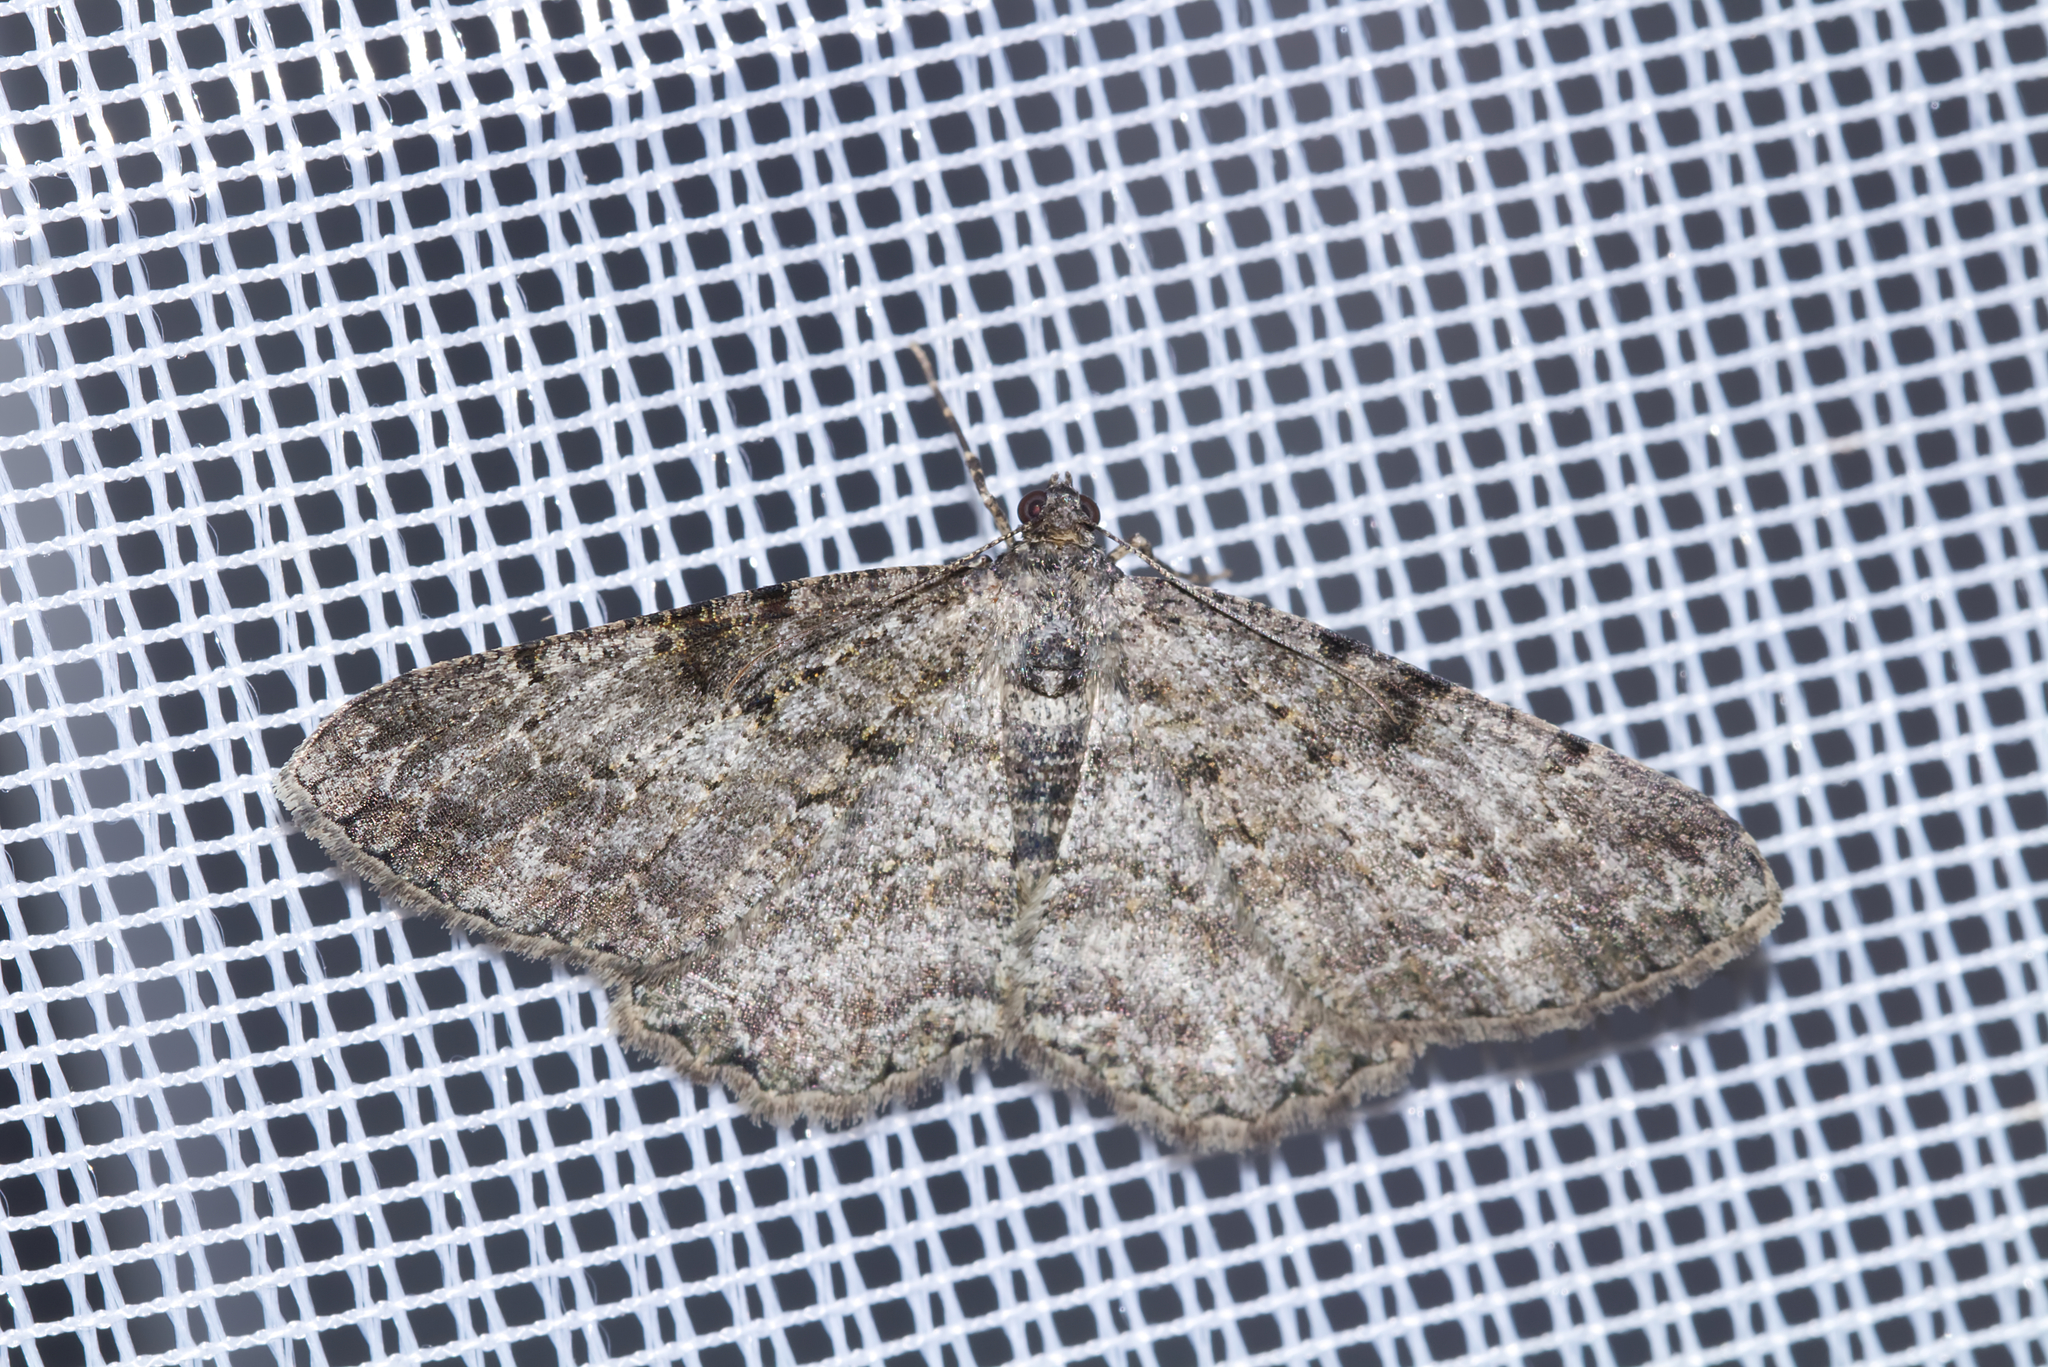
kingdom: Animalia
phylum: Arthropoda
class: Insecta
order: Lepidoptera
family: Geometridae
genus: Peribatodes
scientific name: Peribatodes rhomboidaria
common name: Willow beauty
